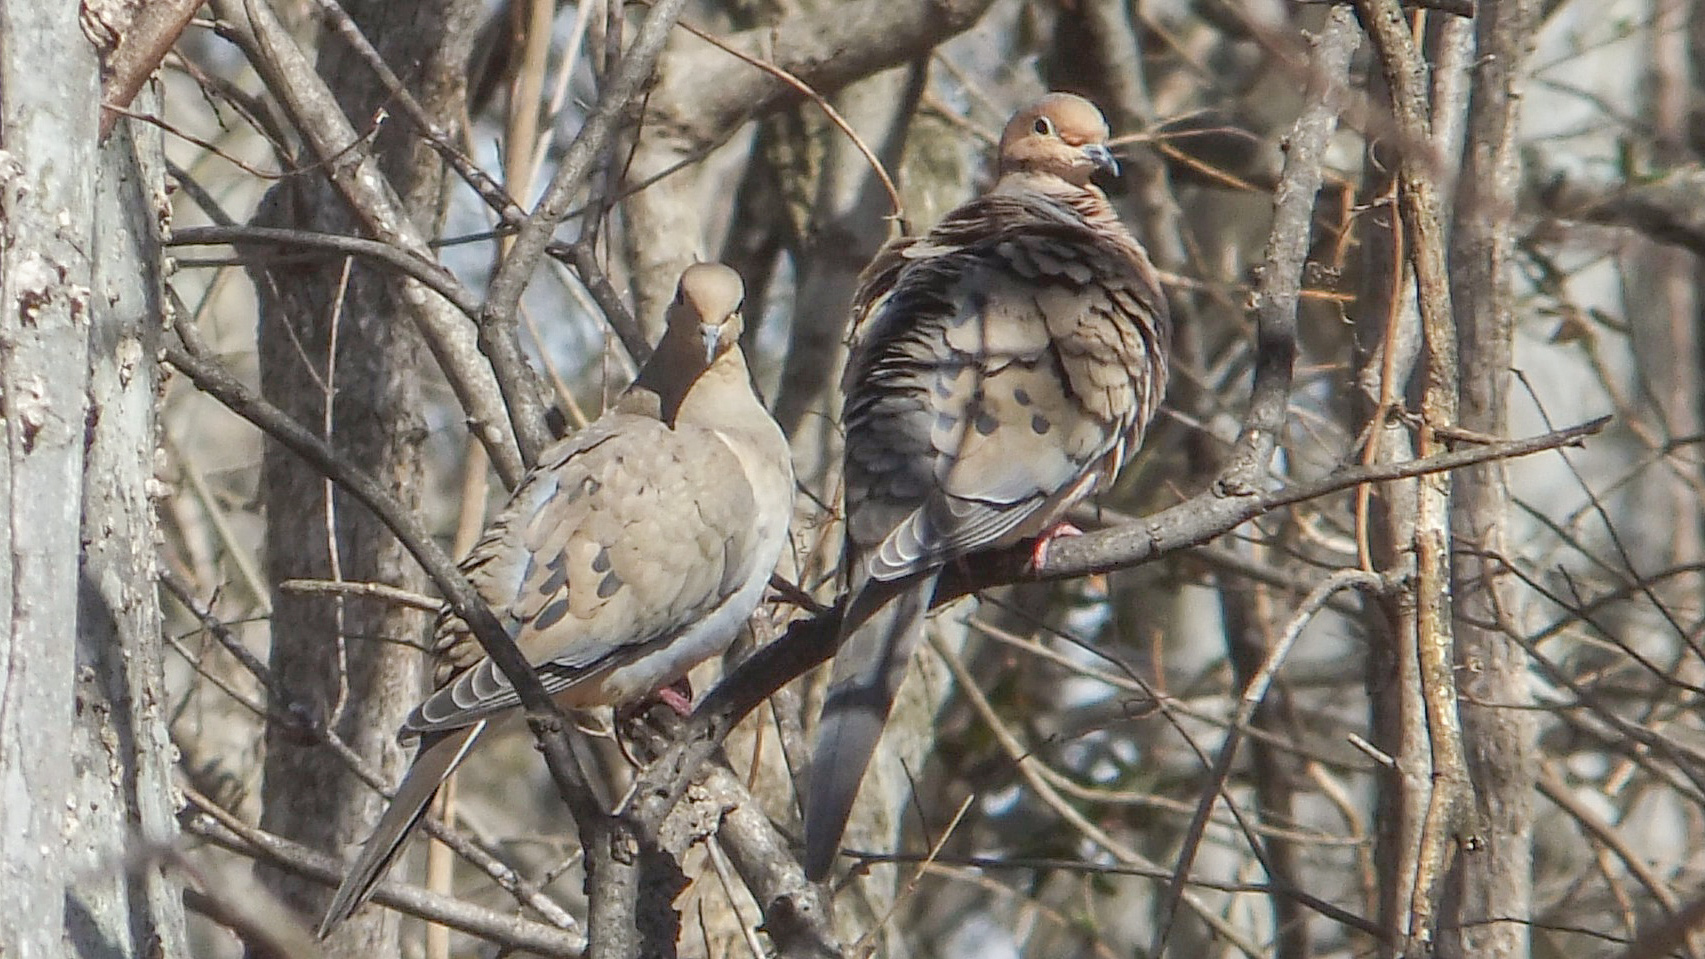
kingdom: Animalia
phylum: Chordata
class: Aves
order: Columbiformes
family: Columbidae
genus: Zenaida
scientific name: Zenaida macroura
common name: Mourning dove
